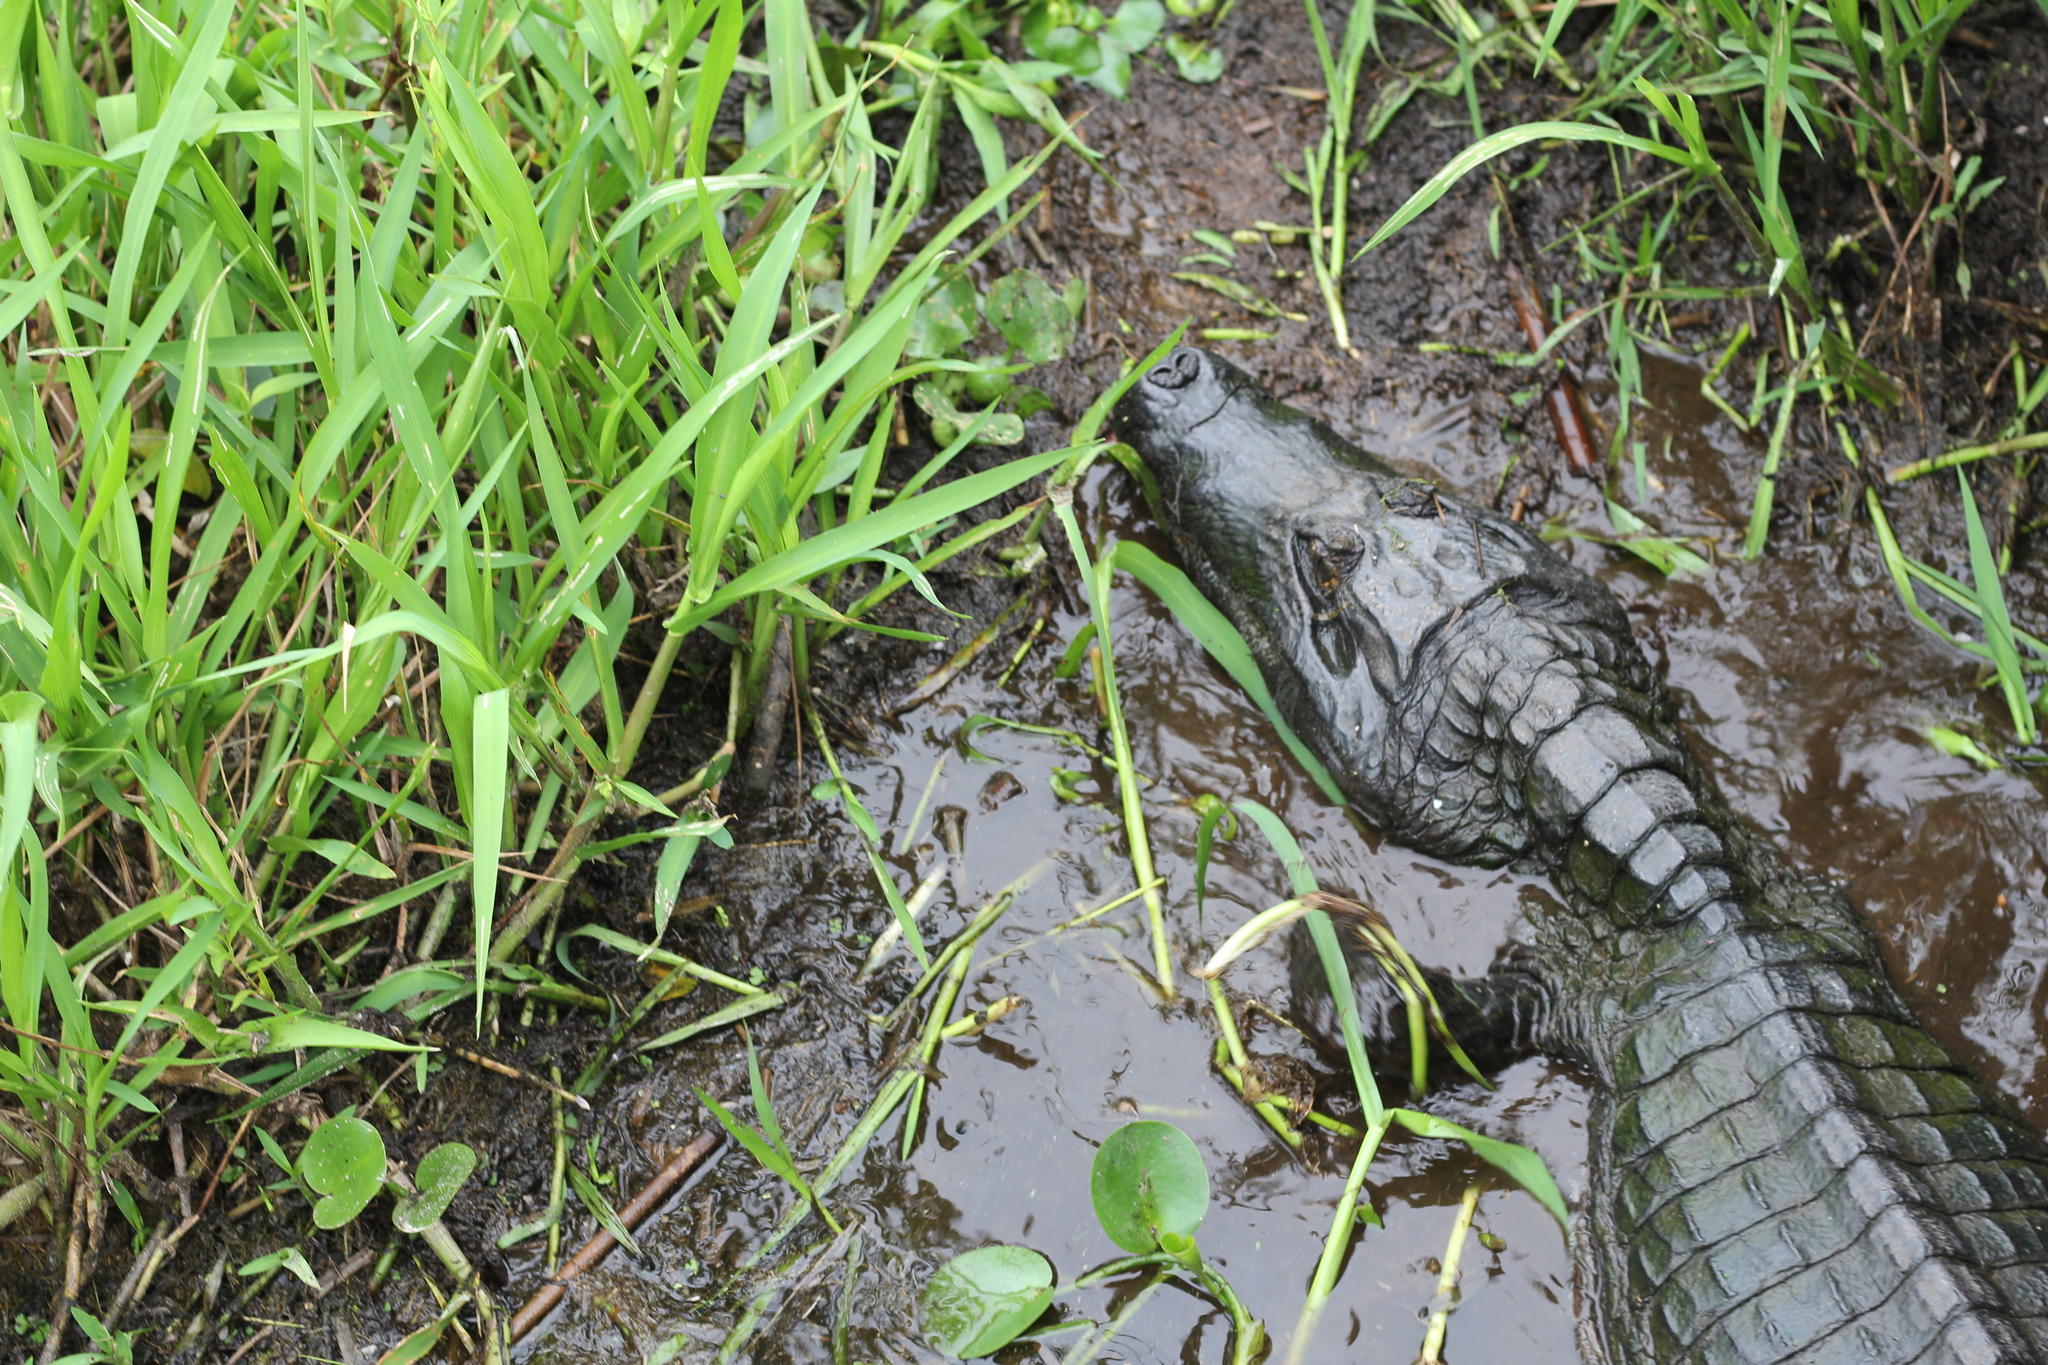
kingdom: Animalia
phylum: Chordata
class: Crocodylia
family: Alligatoridae
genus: Caiman
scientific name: Caiman yacare
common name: Yacare caiman
